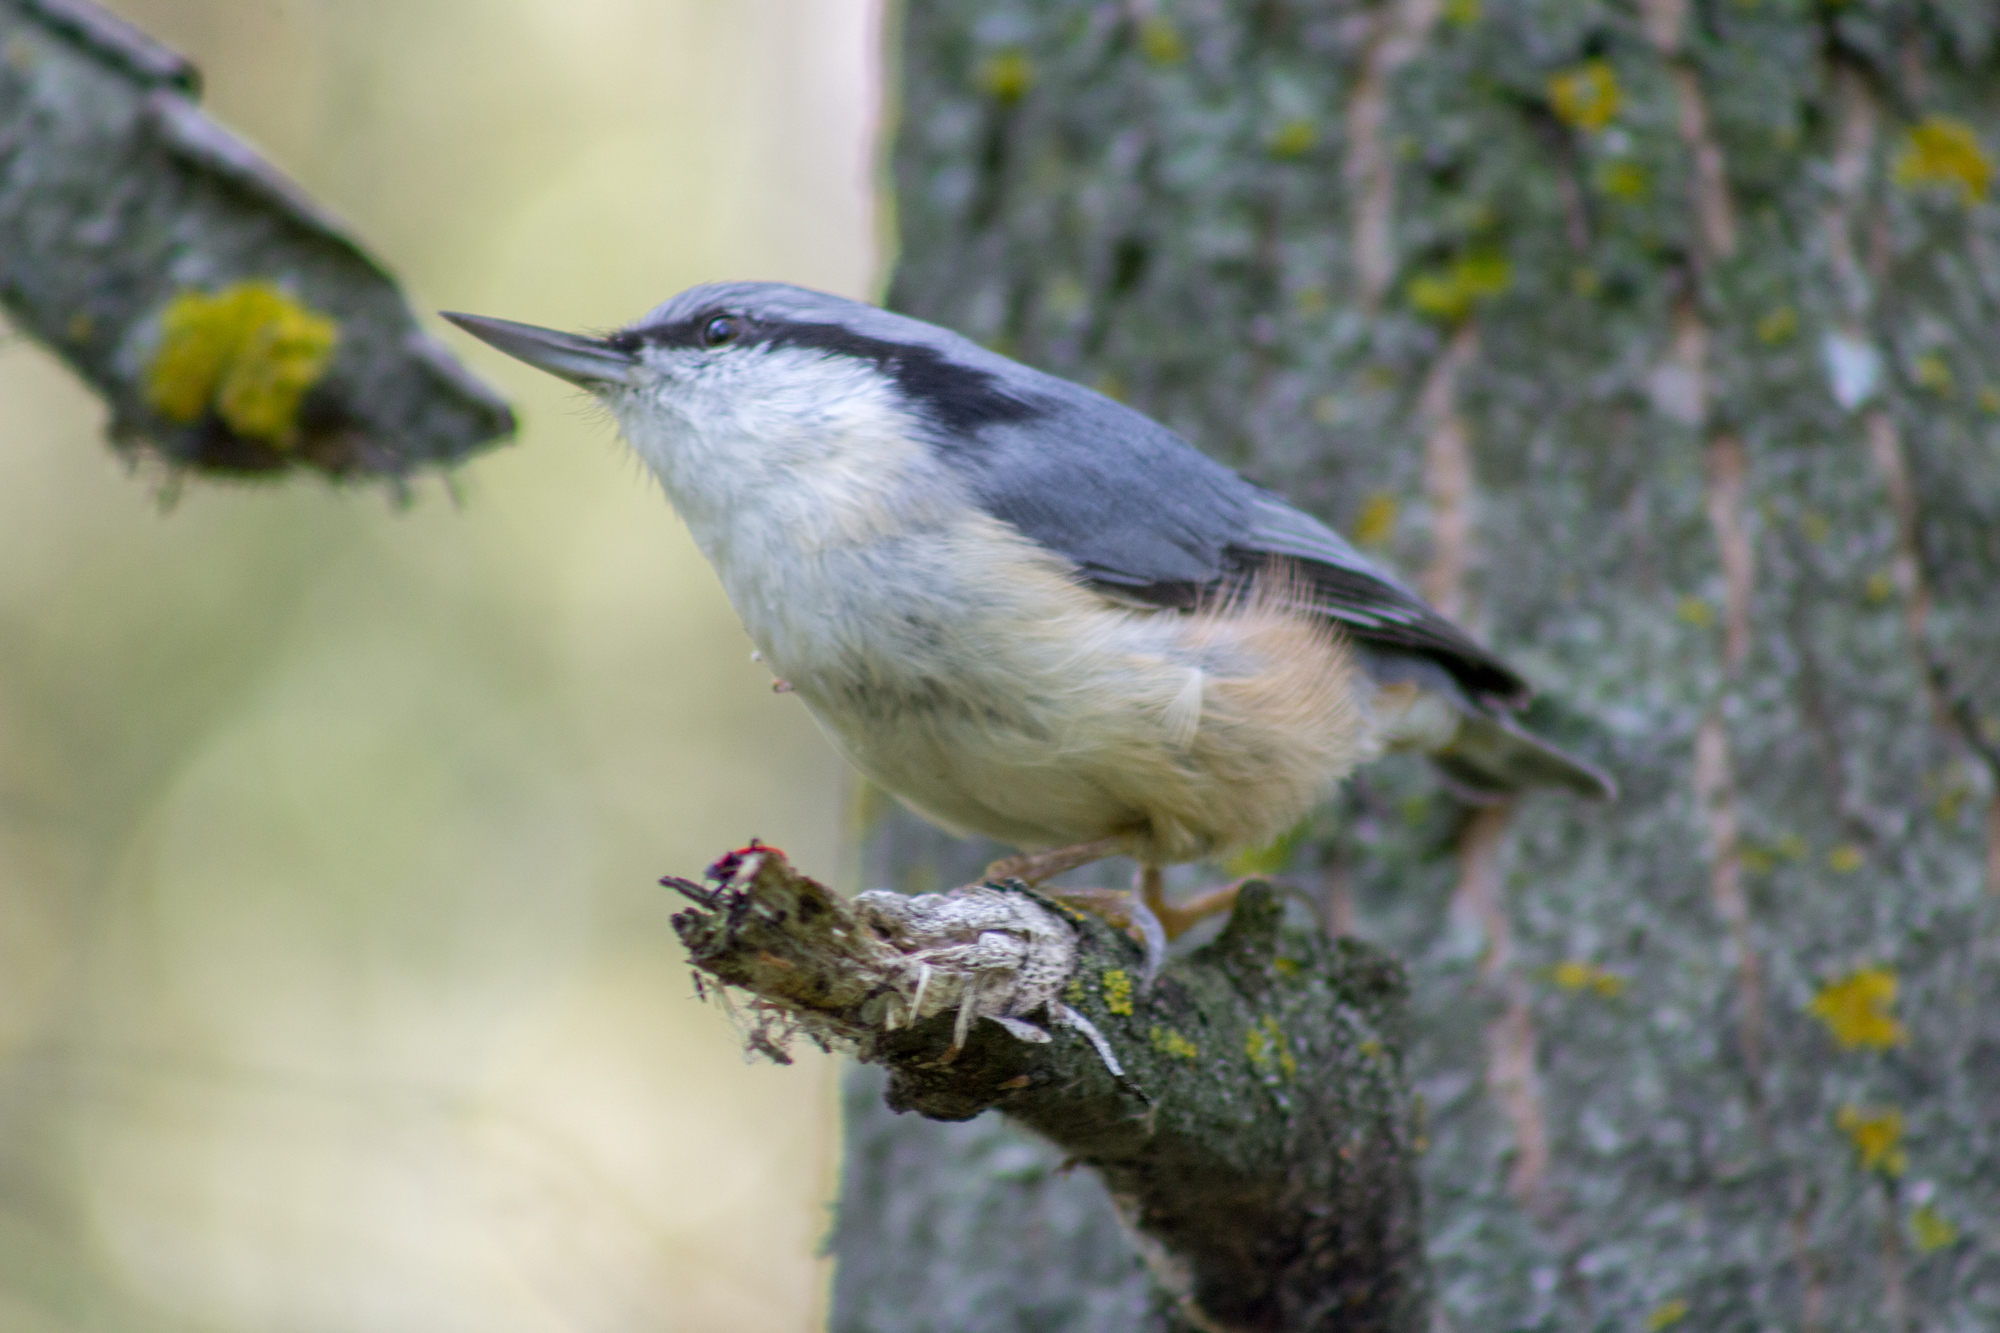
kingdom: Animalia
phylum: Chordata
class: Aves
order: Passeriformes
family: Sittidae
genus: Sitta
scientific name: Sitta europaea
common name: Eurasian nuthatch
